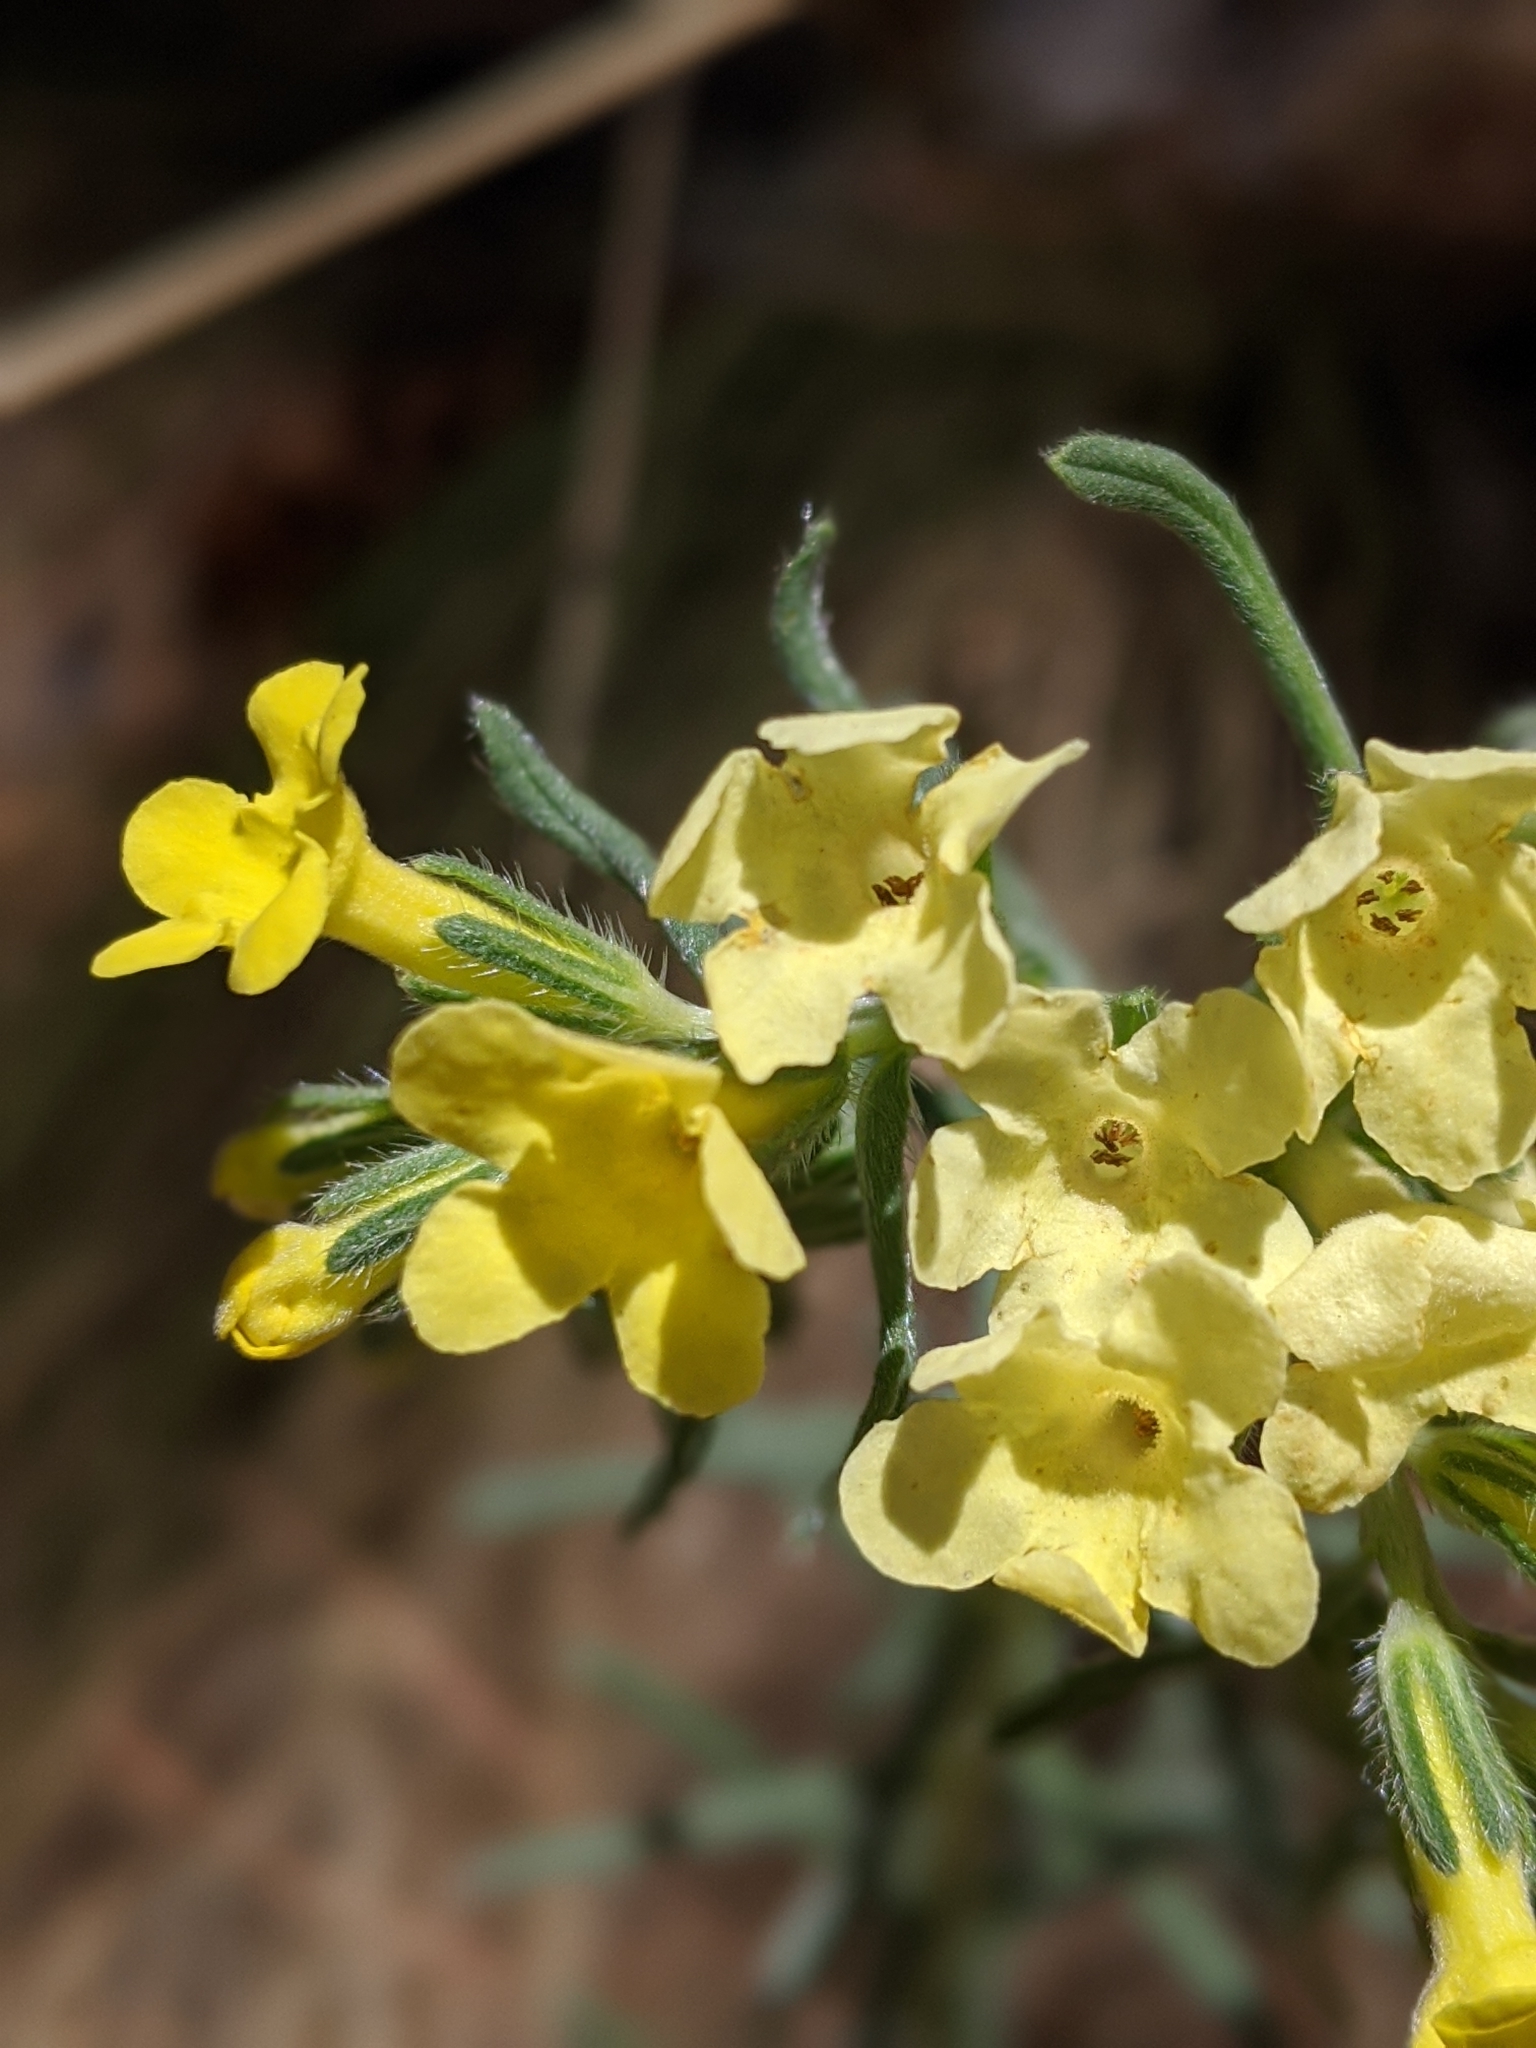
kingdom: Plantae
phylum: Tracheophyta
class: Magnoliopsida
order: Boraginales
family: Boraginaceae
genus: Lithospermum
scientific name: Lithospermum cobrense
